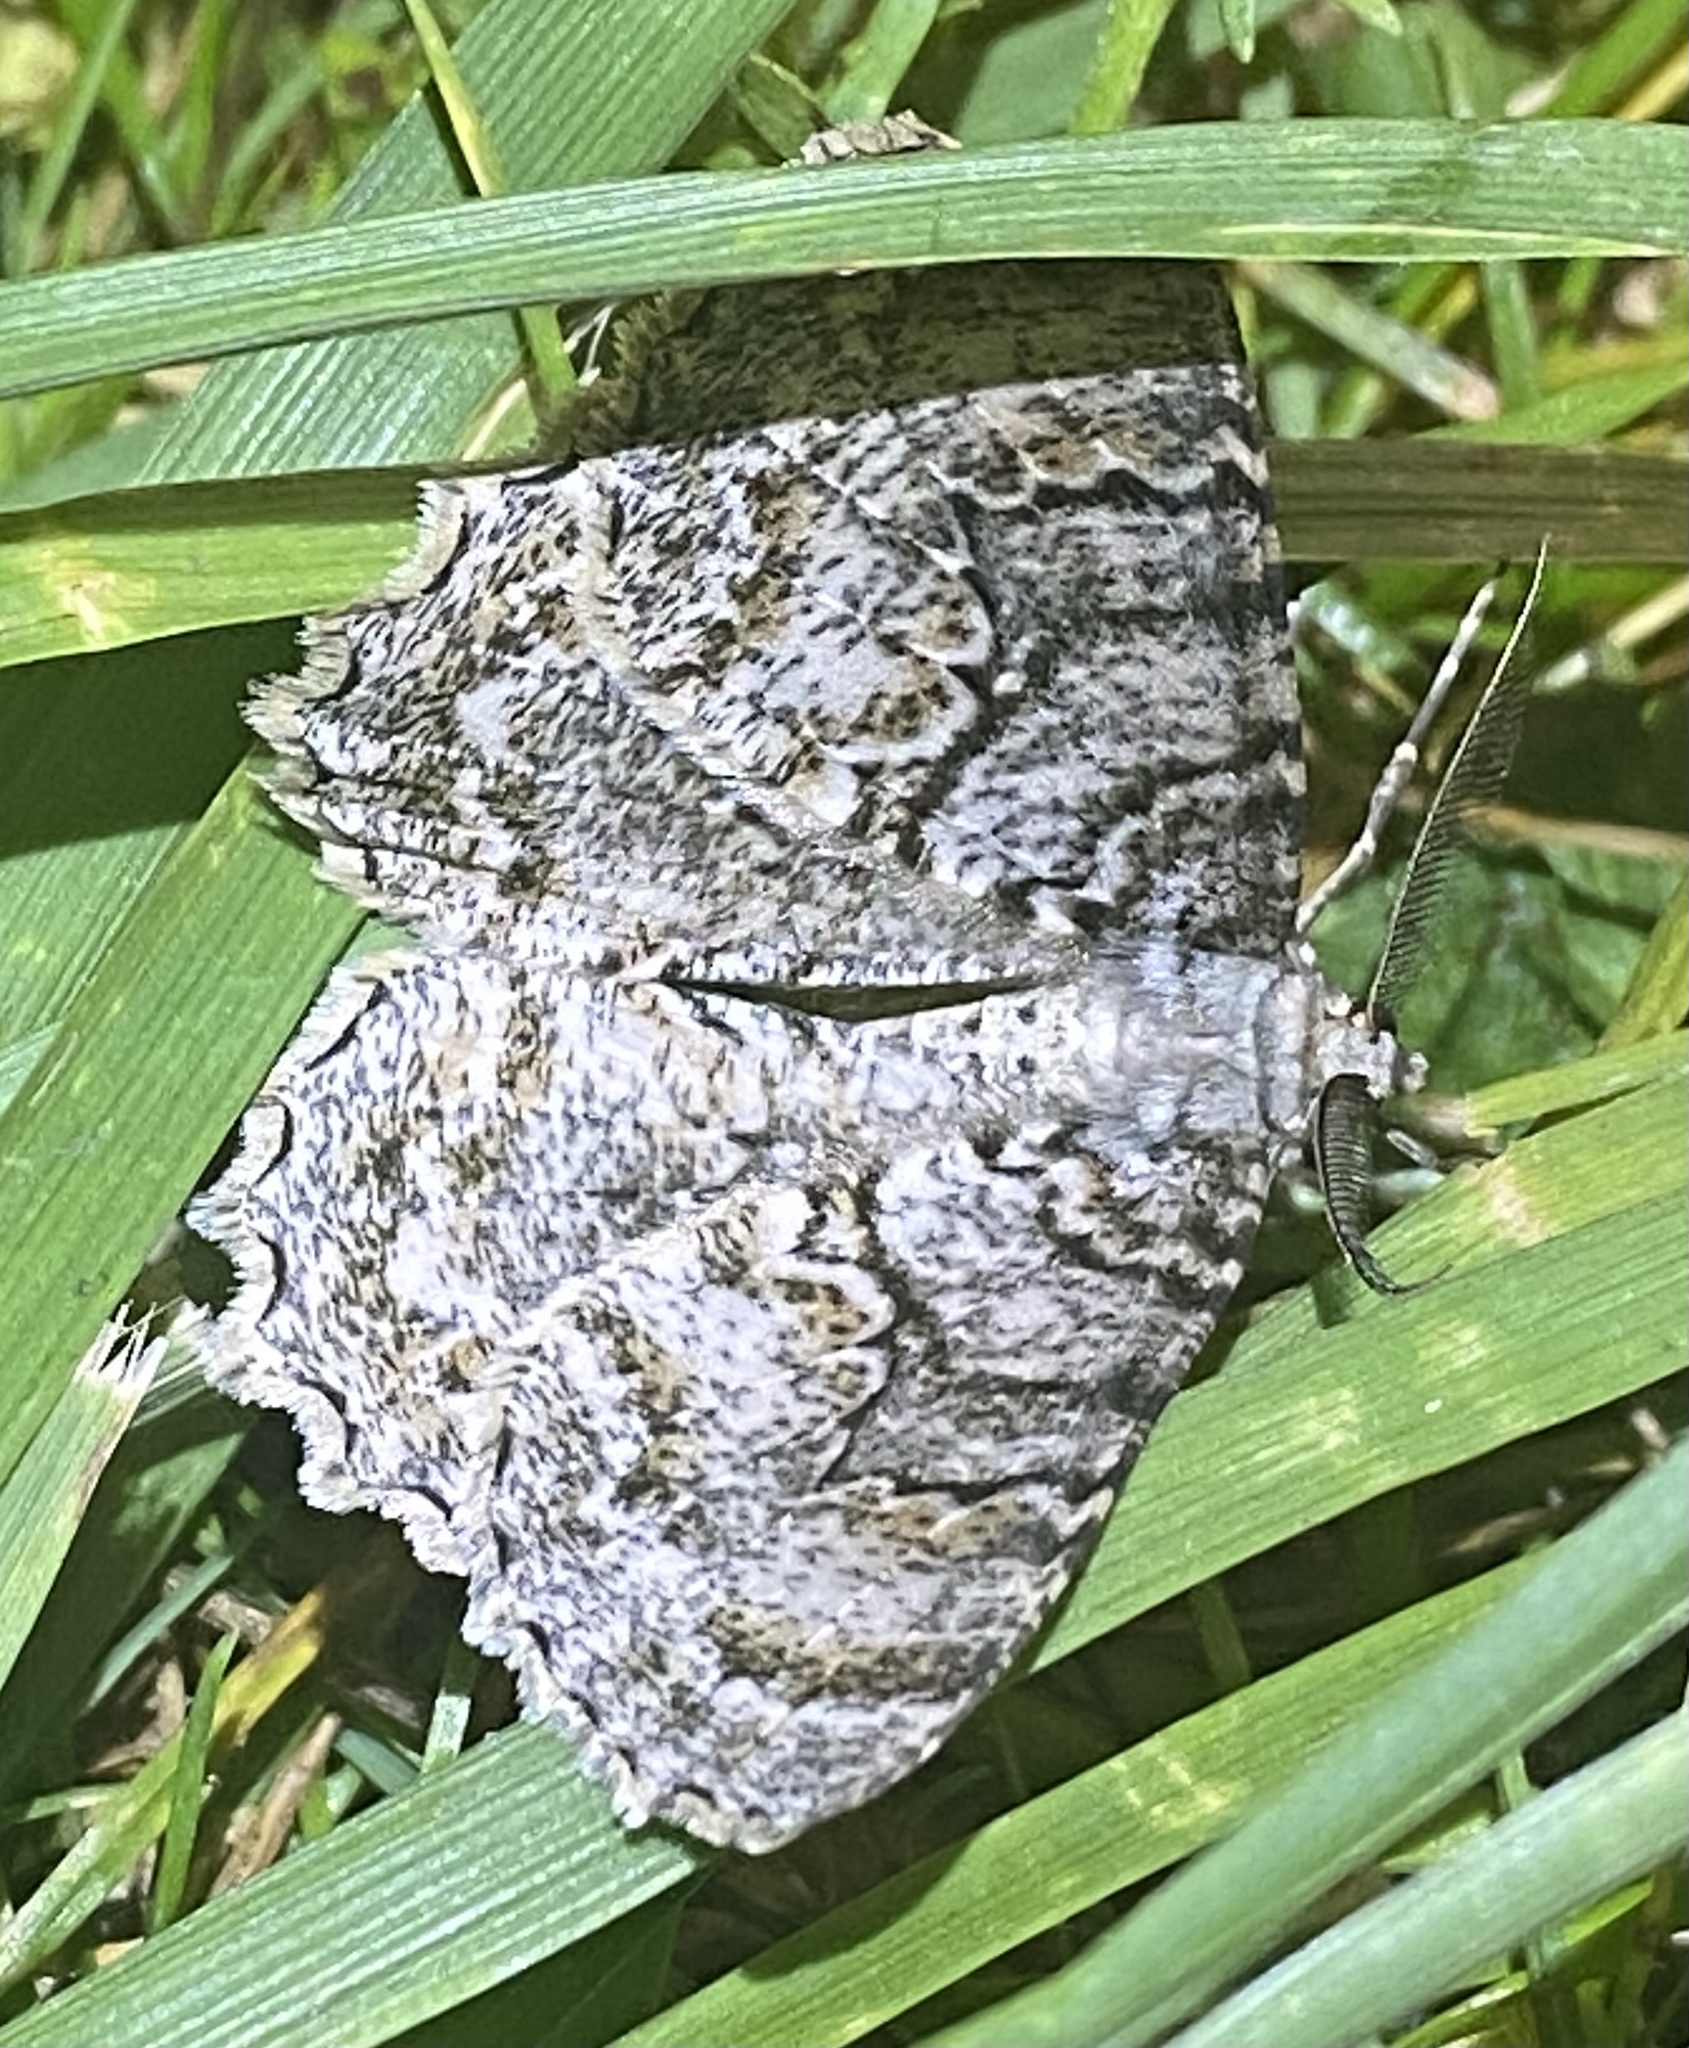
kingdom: Animalia
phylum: Arthropoda
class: Insecta
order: Lepidoptera
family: Geometridae
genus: Epimecis
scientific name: Epimecis hortaria
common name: Tulip-tree beauty
